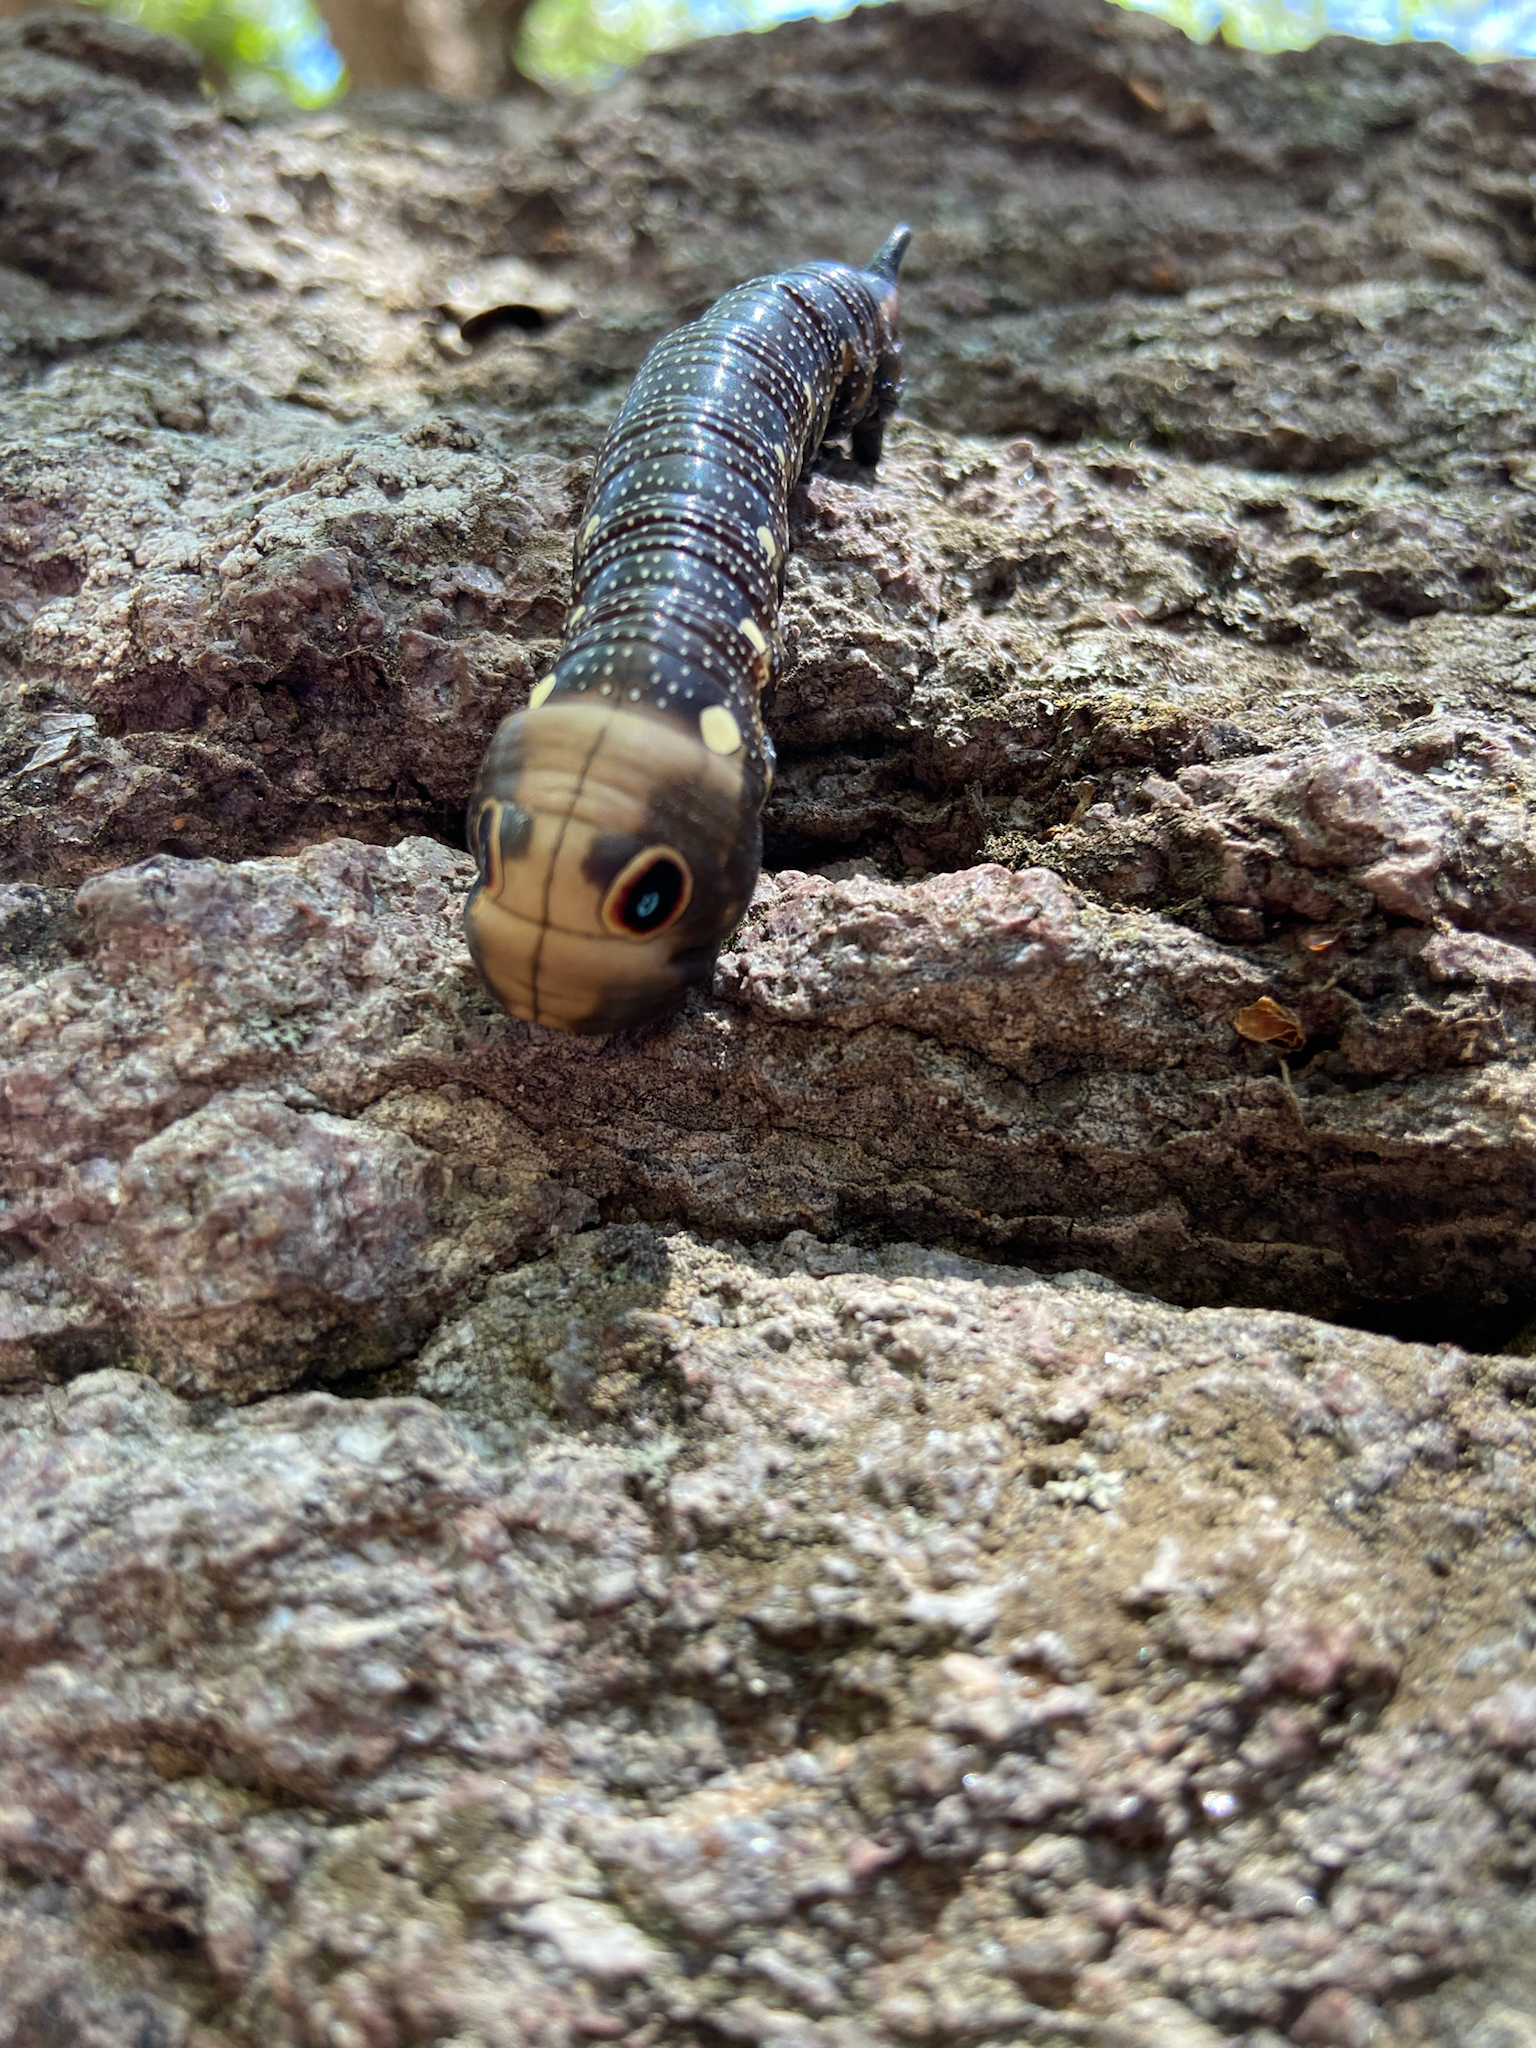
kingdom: Animalia
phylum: Arthropoda
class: Insecta
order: Lepidoptera
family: Sphingidae
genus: Xylophanes
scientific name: Xylophanes falco
